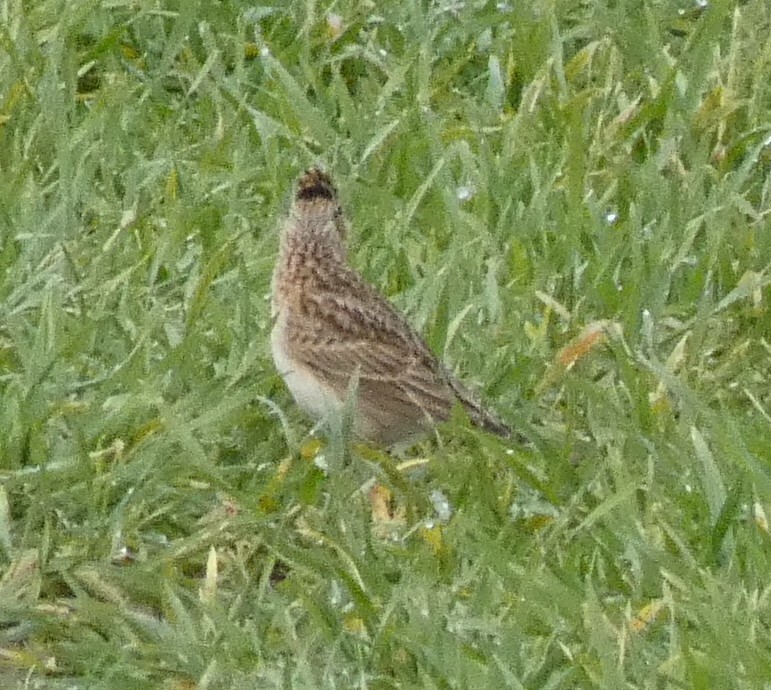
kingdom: Animalia
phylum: Chordata
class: Aves
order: Passeriformes
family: Alaudidae
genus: Alauda
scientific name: Alauda arvensis
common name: Eurasian skylark
